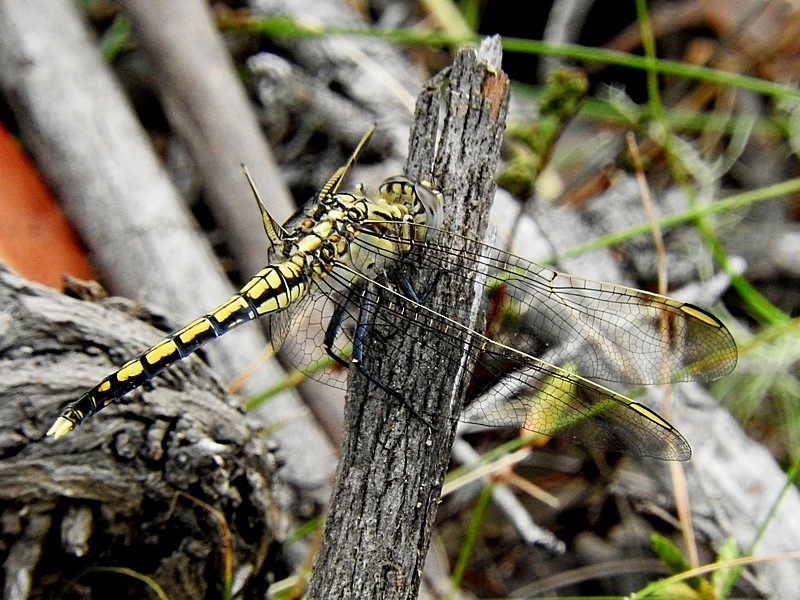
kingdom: Animalia
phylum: Arthropoda
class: Insecta
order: Odonata
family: Libellulidae
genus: Orthetrum
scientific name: Orthetrum caledonicum
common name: Blue skimmer
